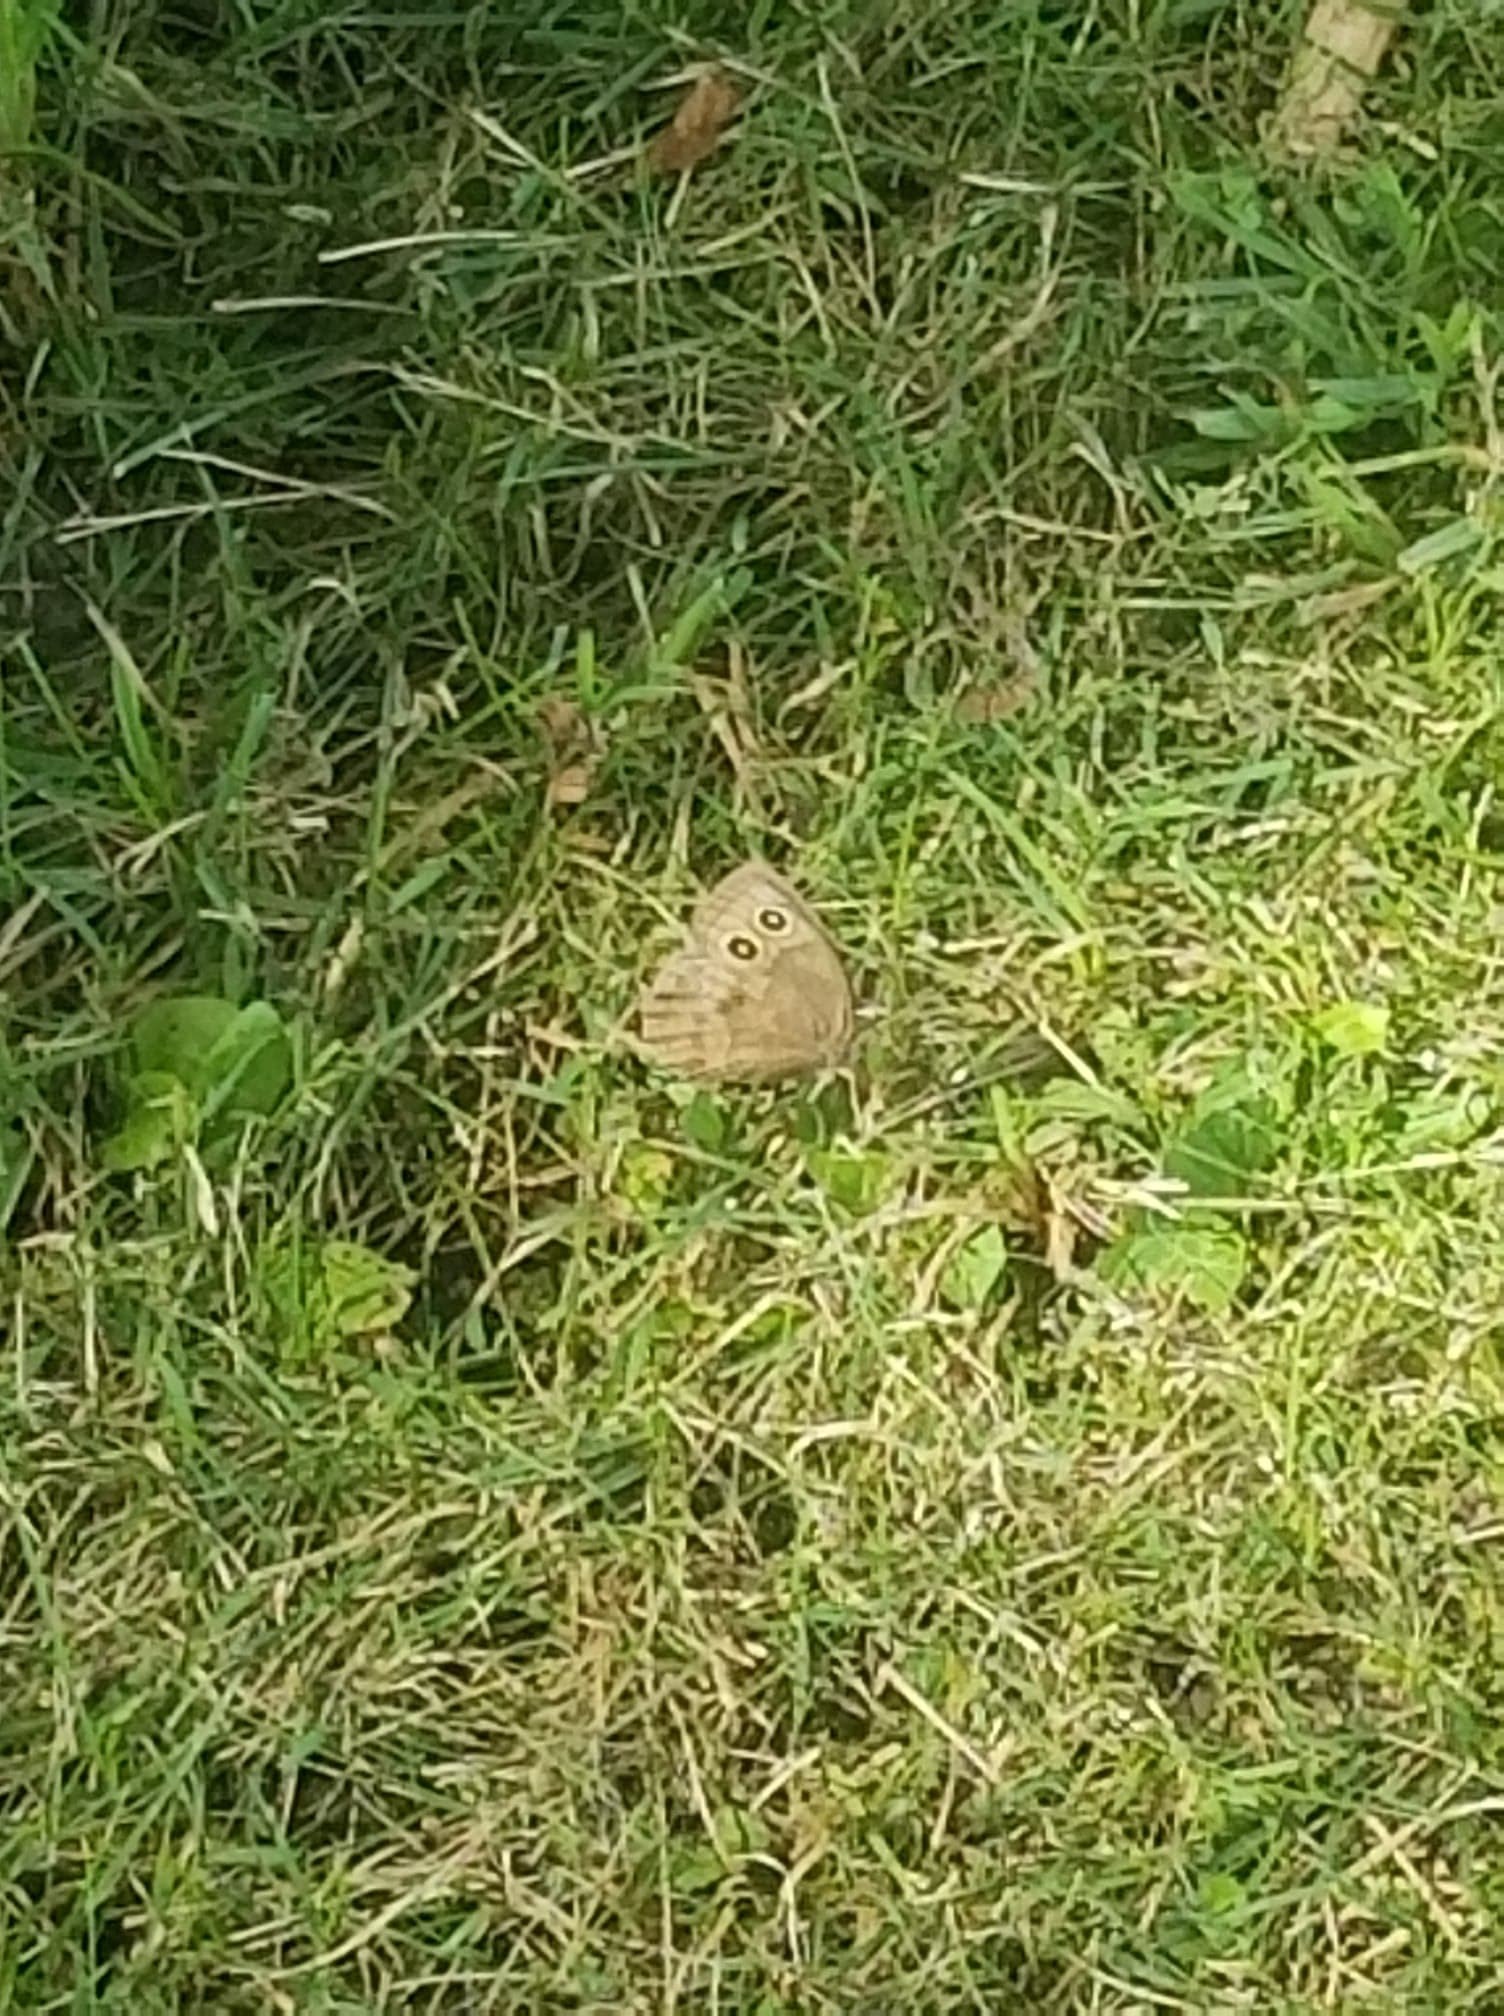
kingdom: Animalia
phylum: Arthropoda
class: Insecta
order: Lepidoptera
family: Nymphalidae
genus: Cercyonis
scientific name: Cercyonis pegala
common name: Common wood-nymph
